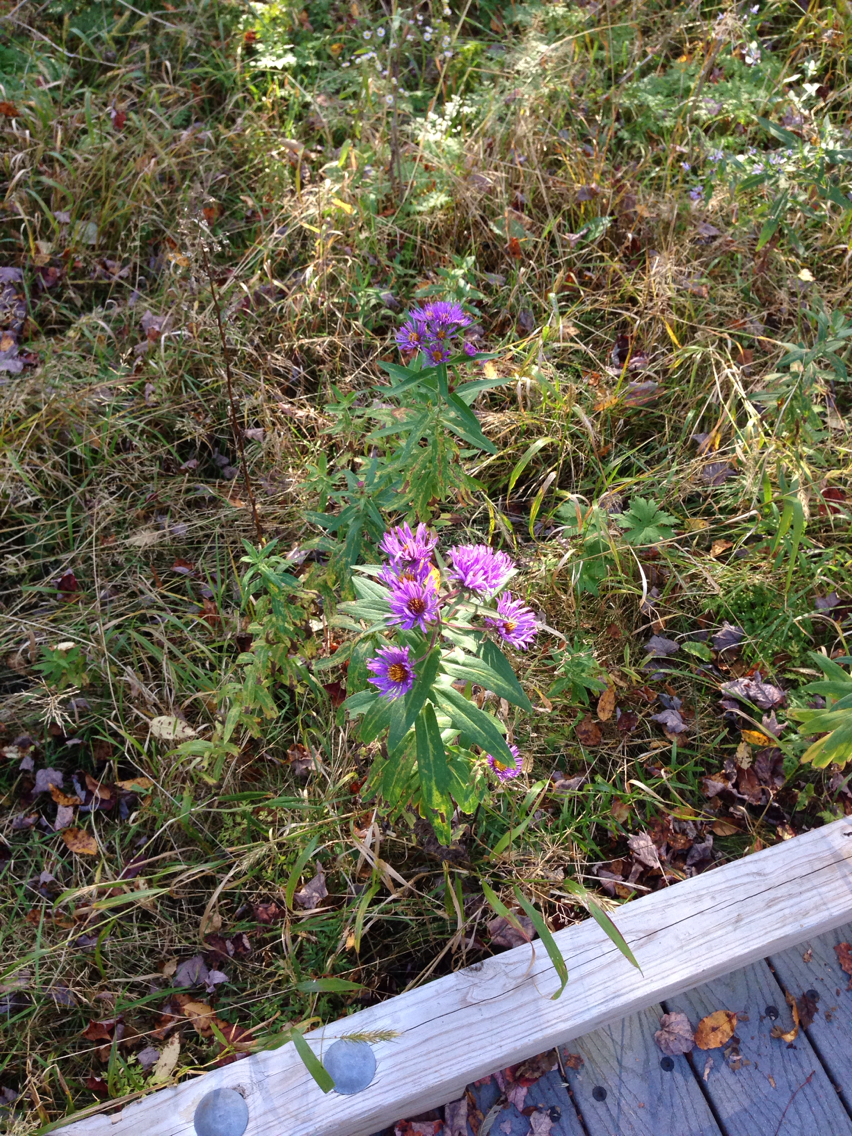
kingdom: Plantae
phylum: Tracheophyta
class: Magnoliopsida
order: Asterales
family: Asteraceae
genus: Symphyotrichum
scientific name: Symphyotrichum novae-angliae
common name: Michaelmas daisy
